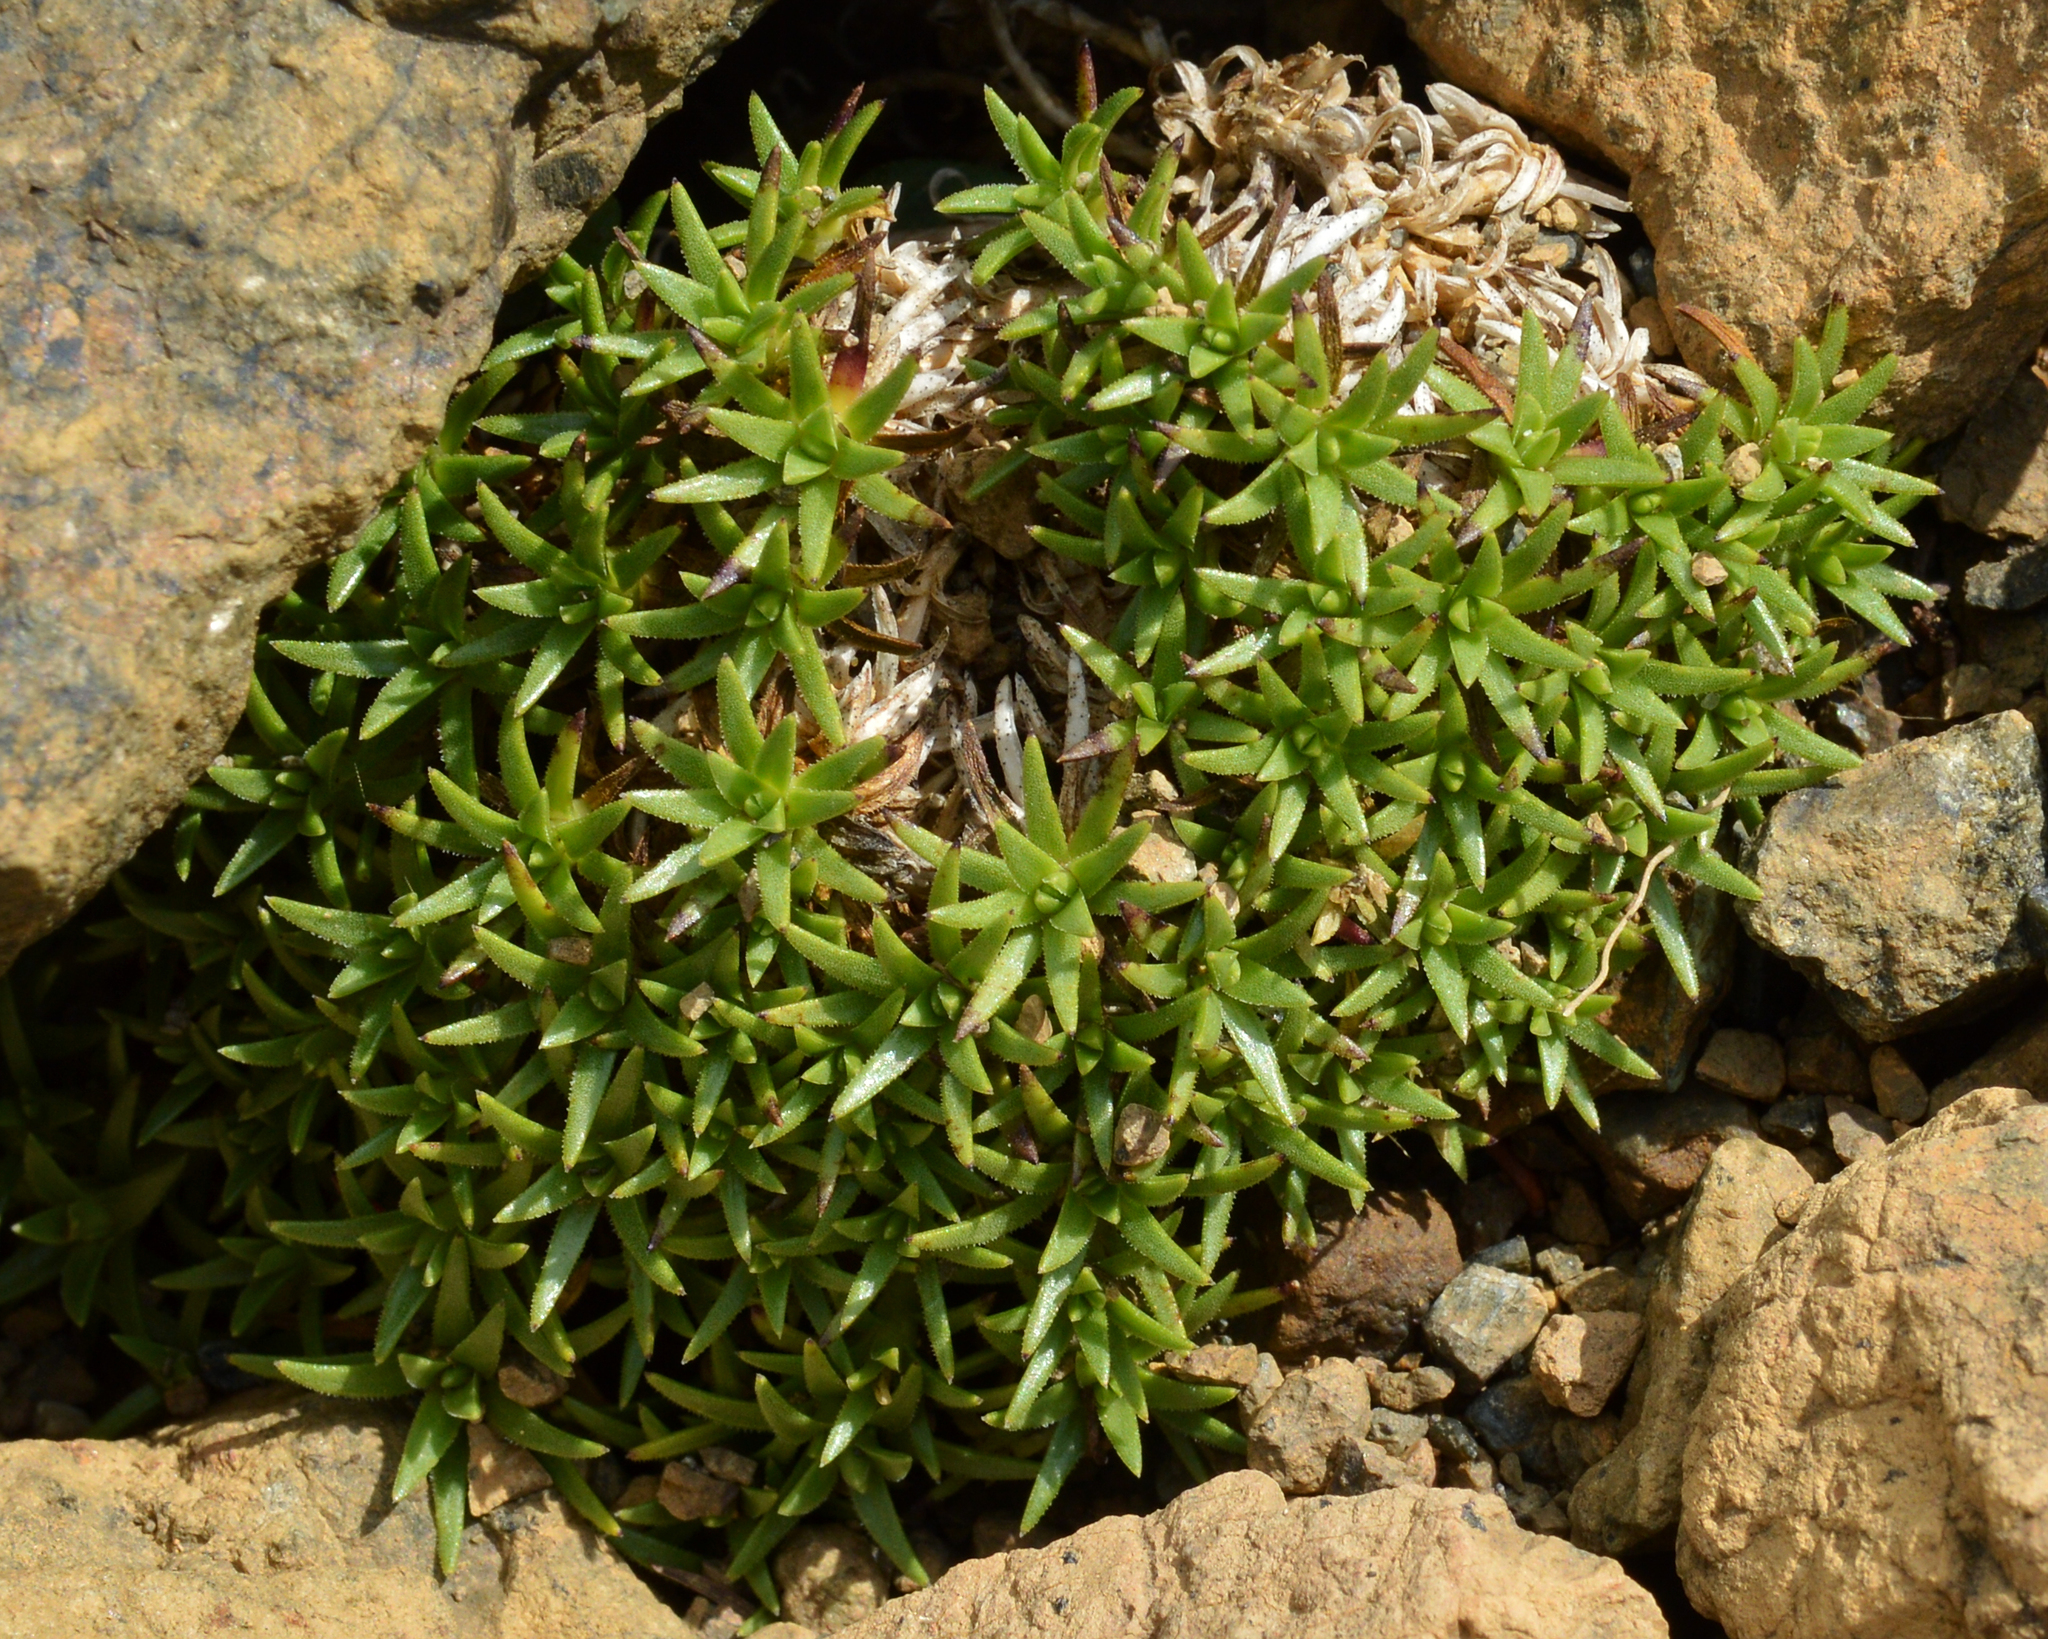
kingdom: Plantae
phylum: Tracheophyta
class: Magnoliopsida
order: Caryophyllales
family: Caryophyllaceae
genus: Silene
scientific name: Silene acaulis
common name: Moss campion
